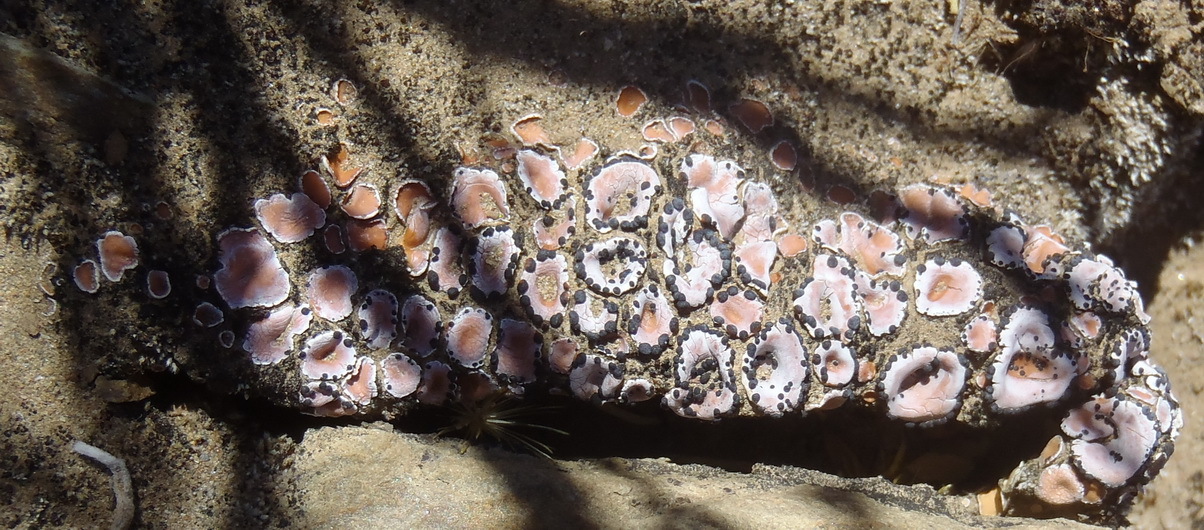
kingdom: Fungi
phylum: Ascomycota
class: Lecanoromycetes
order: Lecanorales
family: Psoraceae
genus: Psora
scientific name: Psora crenata
